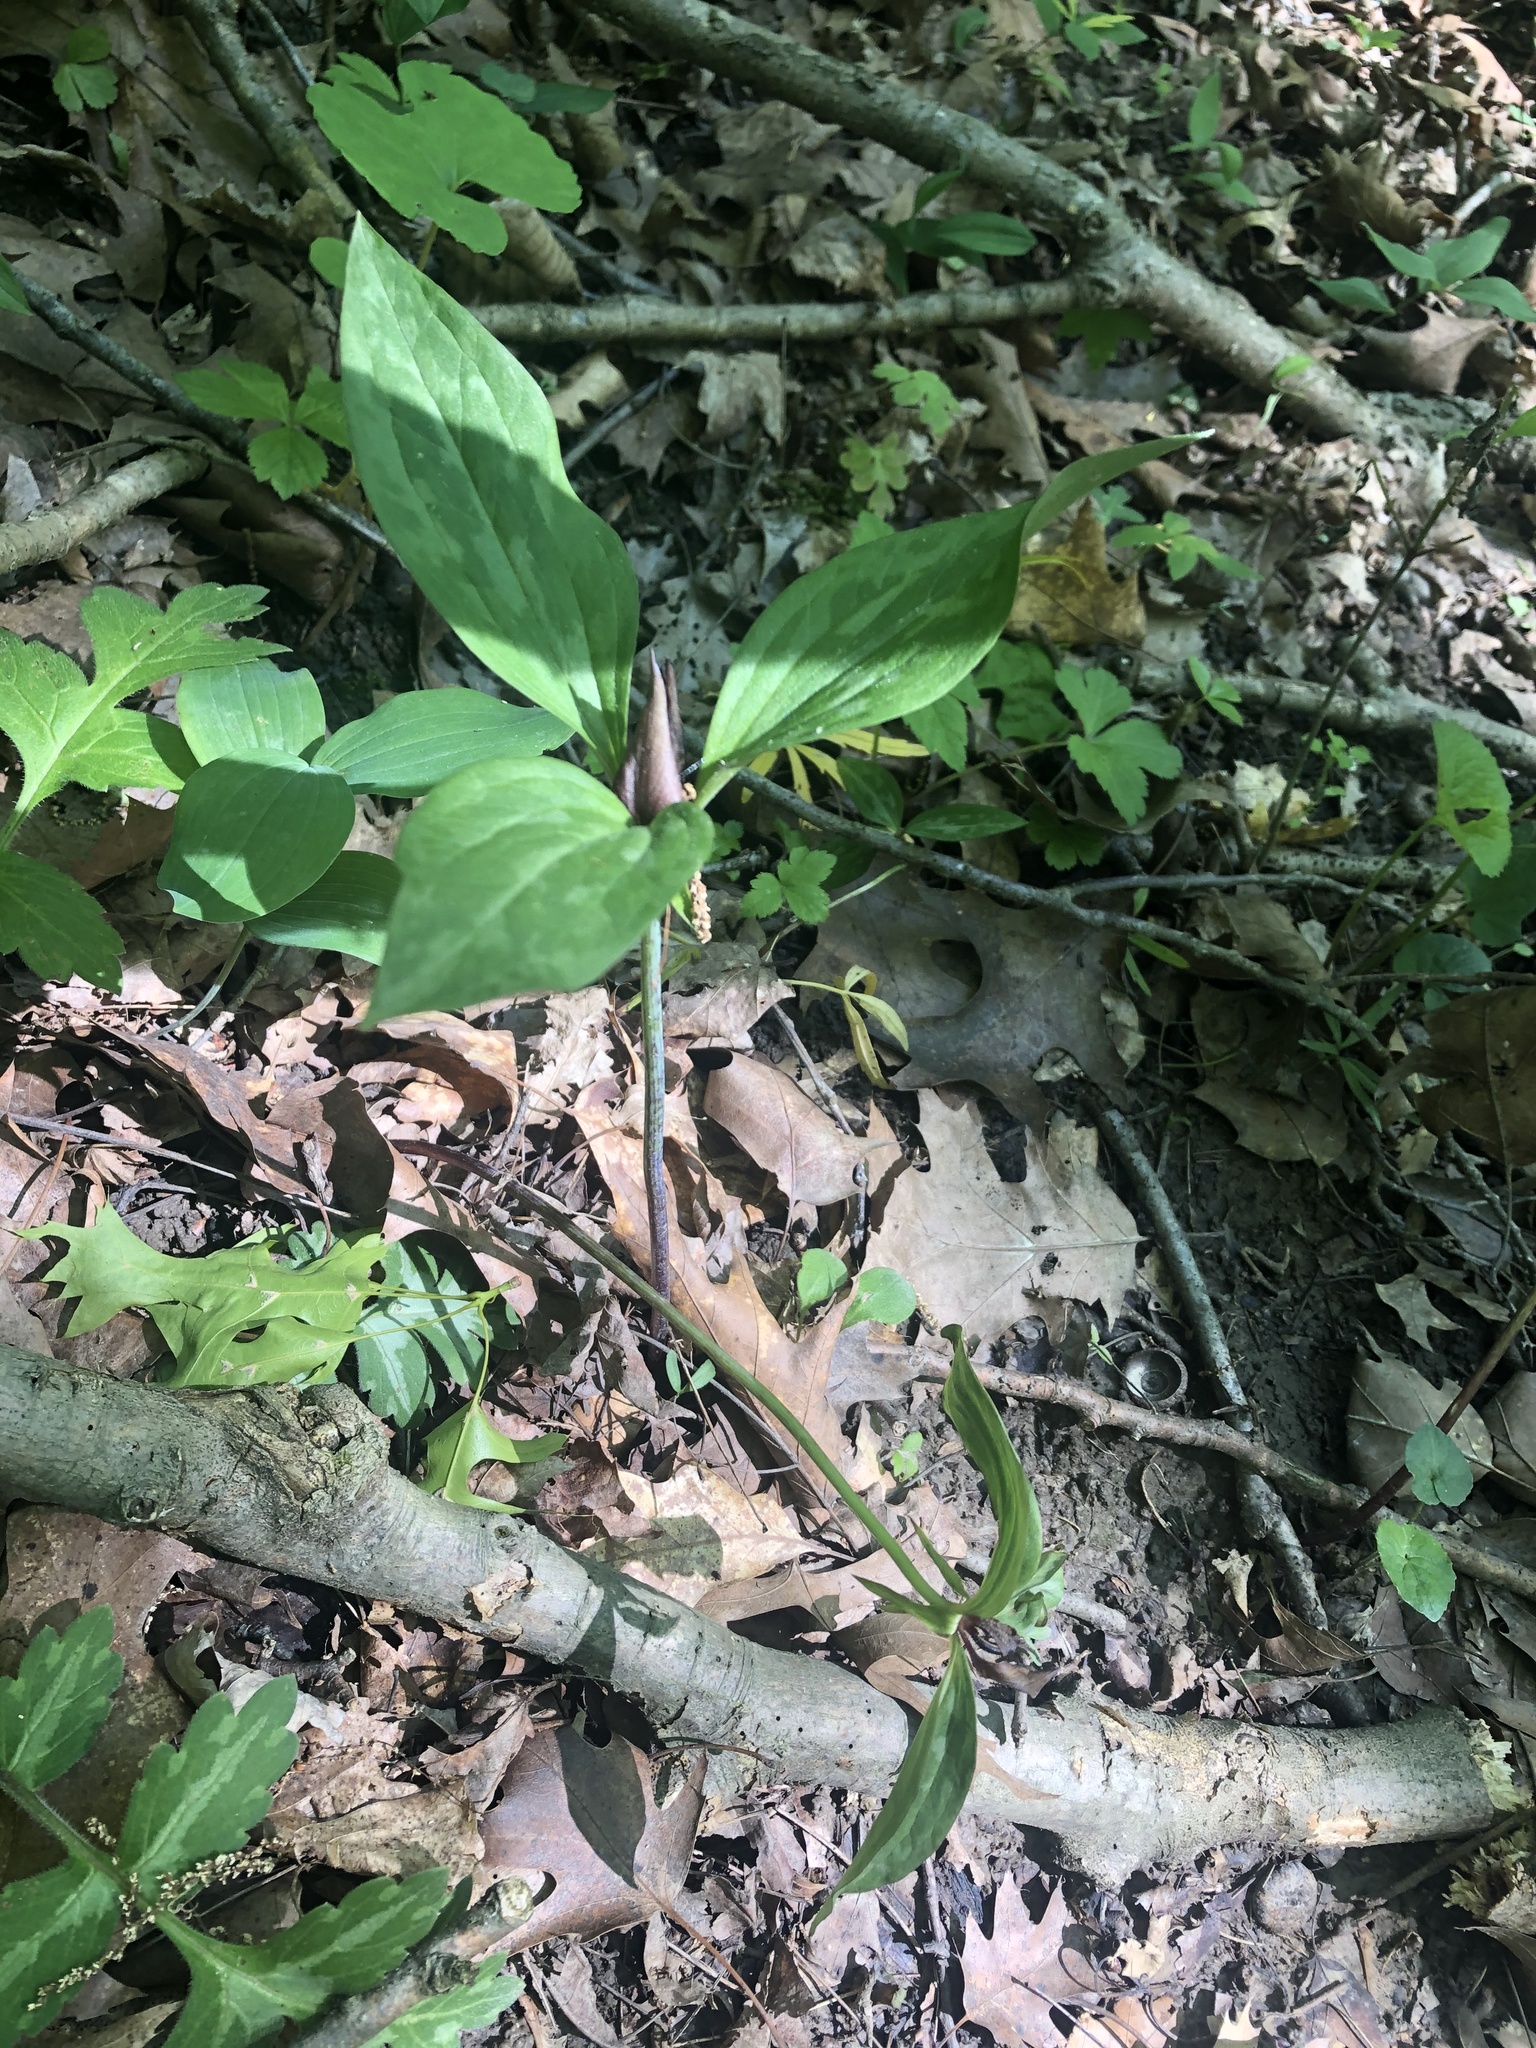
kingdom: Plantae
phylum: Tracheophyta
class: Liliopsida
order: Liliales
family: Melanthiaceae
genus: Trillium
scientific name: Trillium recurvatum
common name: Bloody butcher
